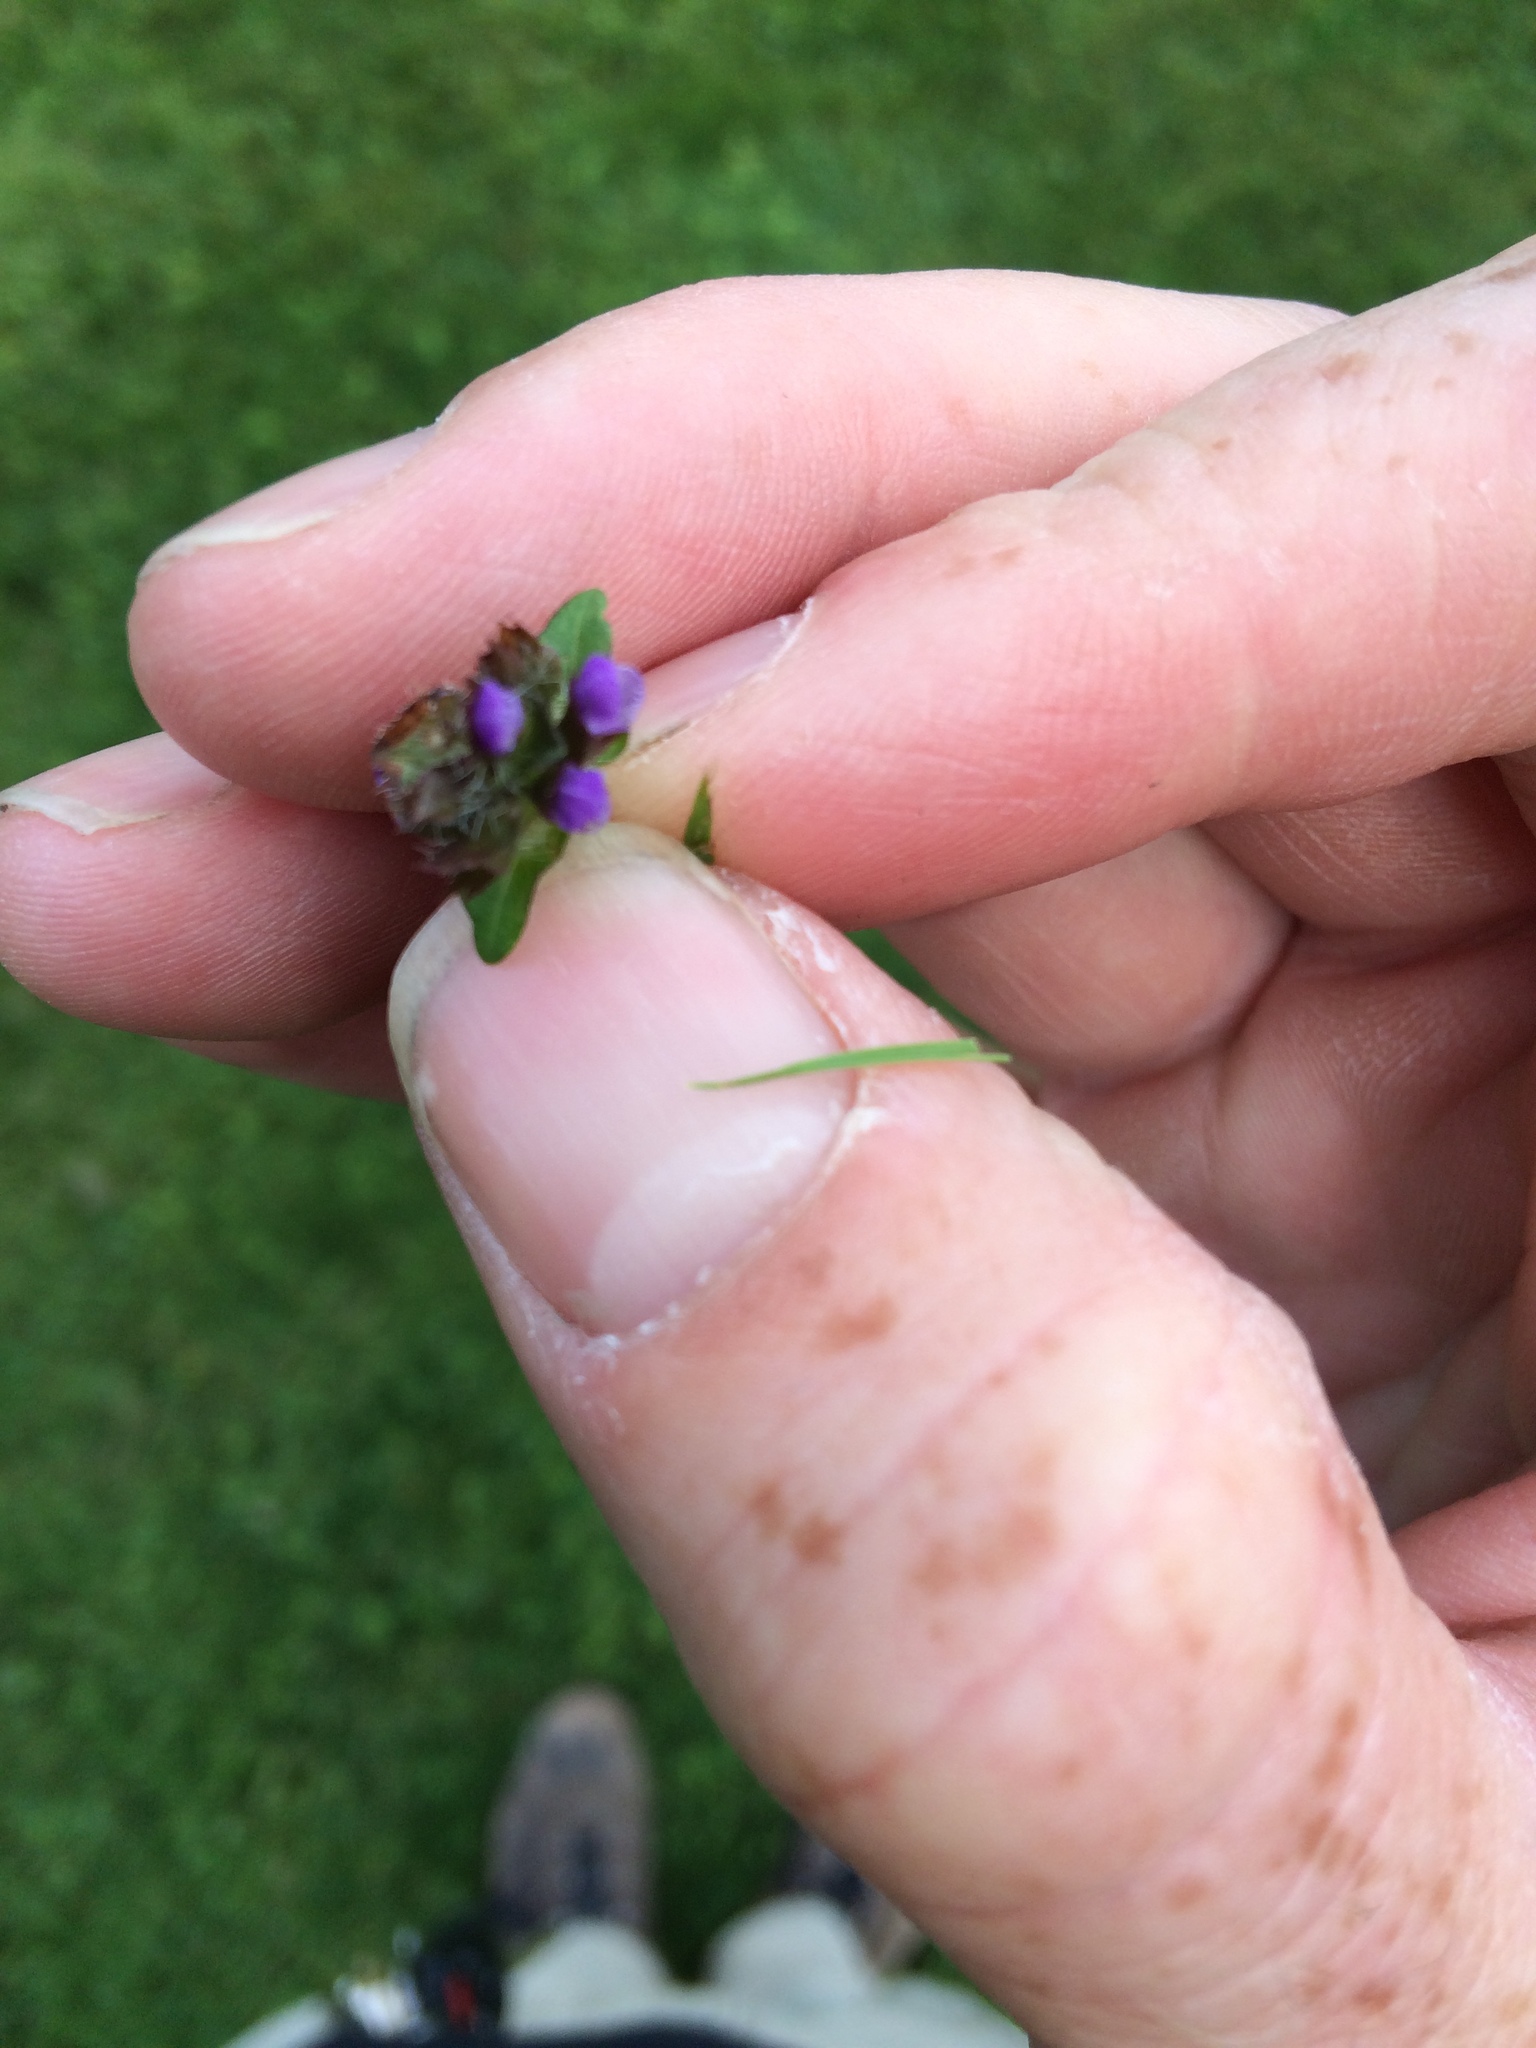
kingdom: Plantae
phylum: Tracheophyta
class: Magnoliopsida
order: Lamiales
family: Lamiaceae
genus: Prunella
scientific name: Prunella vulgaris
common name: Heal-all
